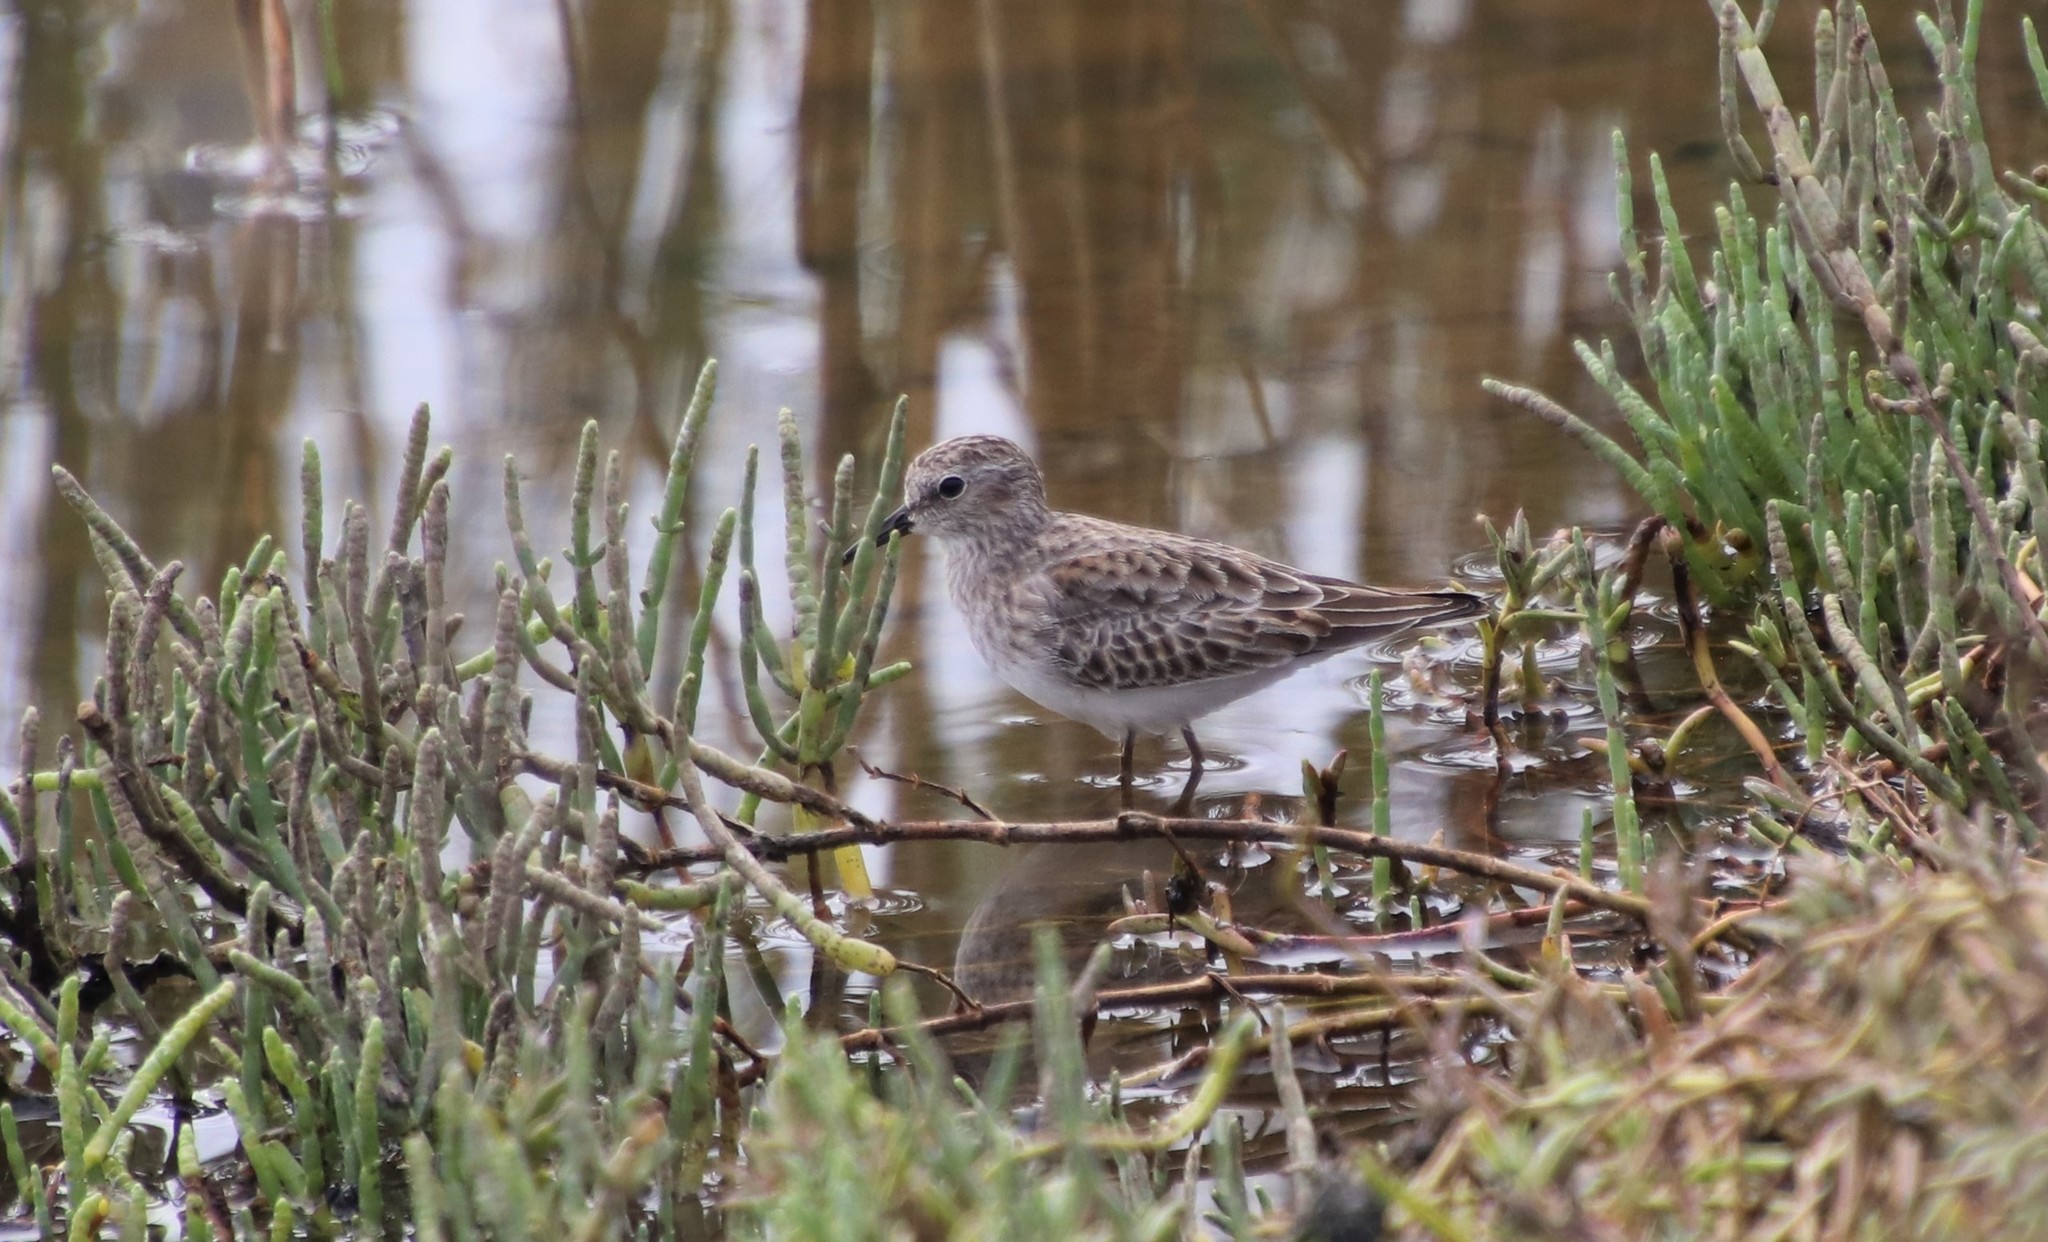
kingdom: Animalia
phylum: Chordata
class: Aves
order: Charadriiformes
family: Scolopacidae
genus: Calidris
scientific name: Calidris minutilla
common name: Least sandpiper
